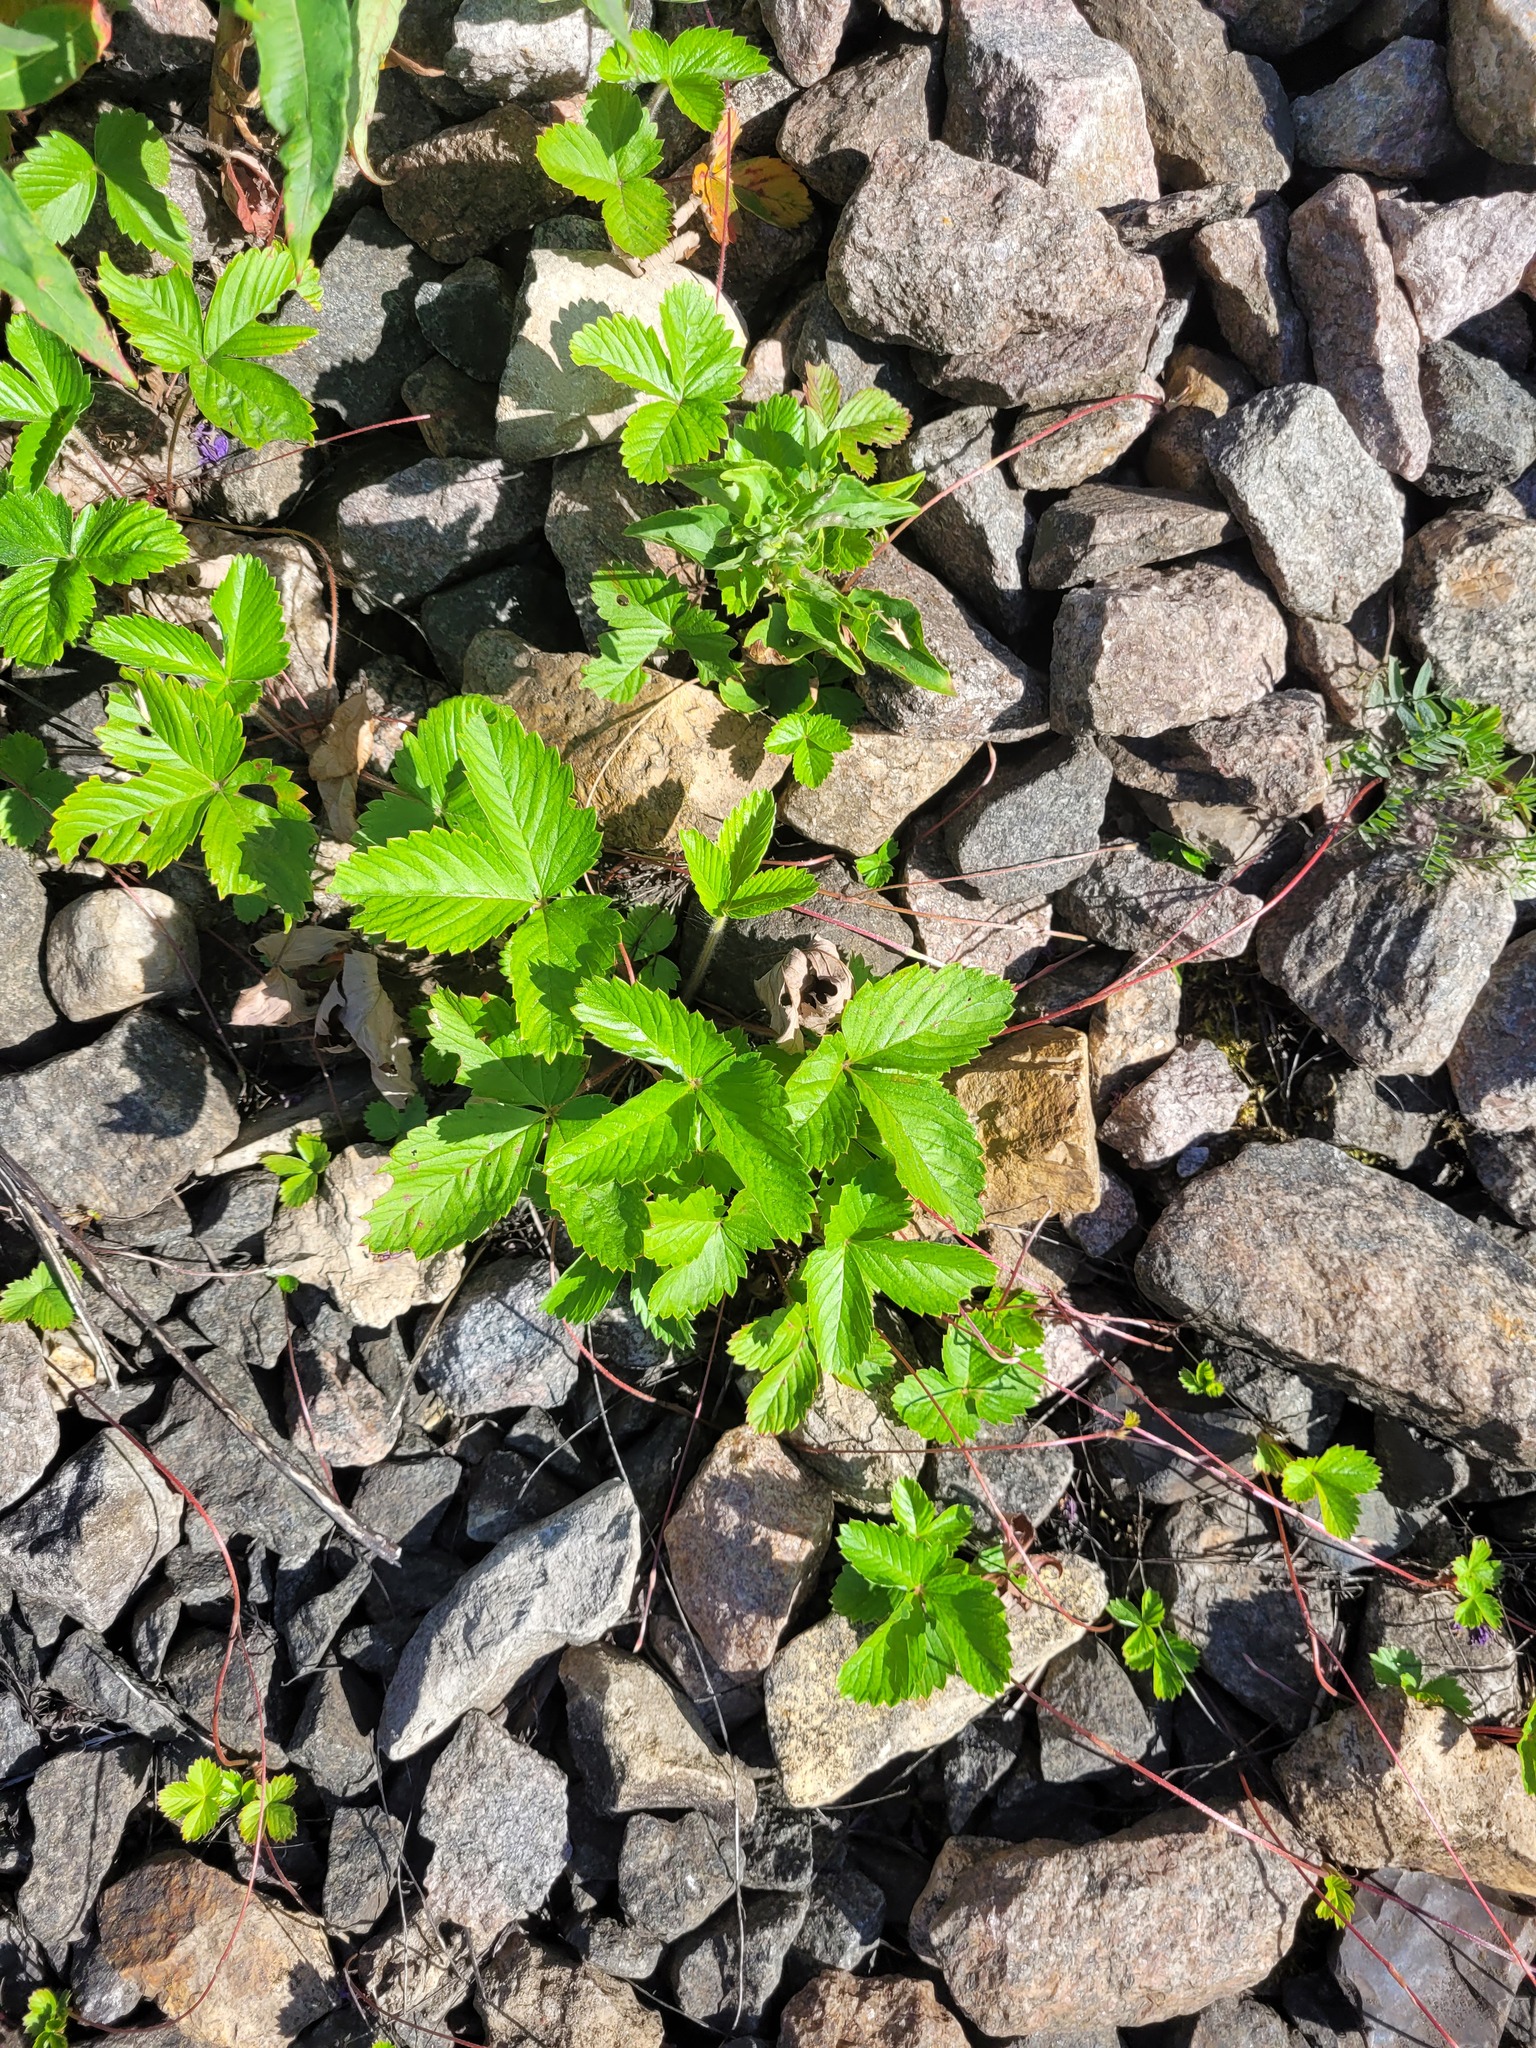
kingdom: Plantae
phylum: Tracheophyta
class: Magnoliopsida
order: Rosales
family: Rosaceae
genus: Fragaria
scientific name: Fragaria vesca
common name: Wild strawberry
